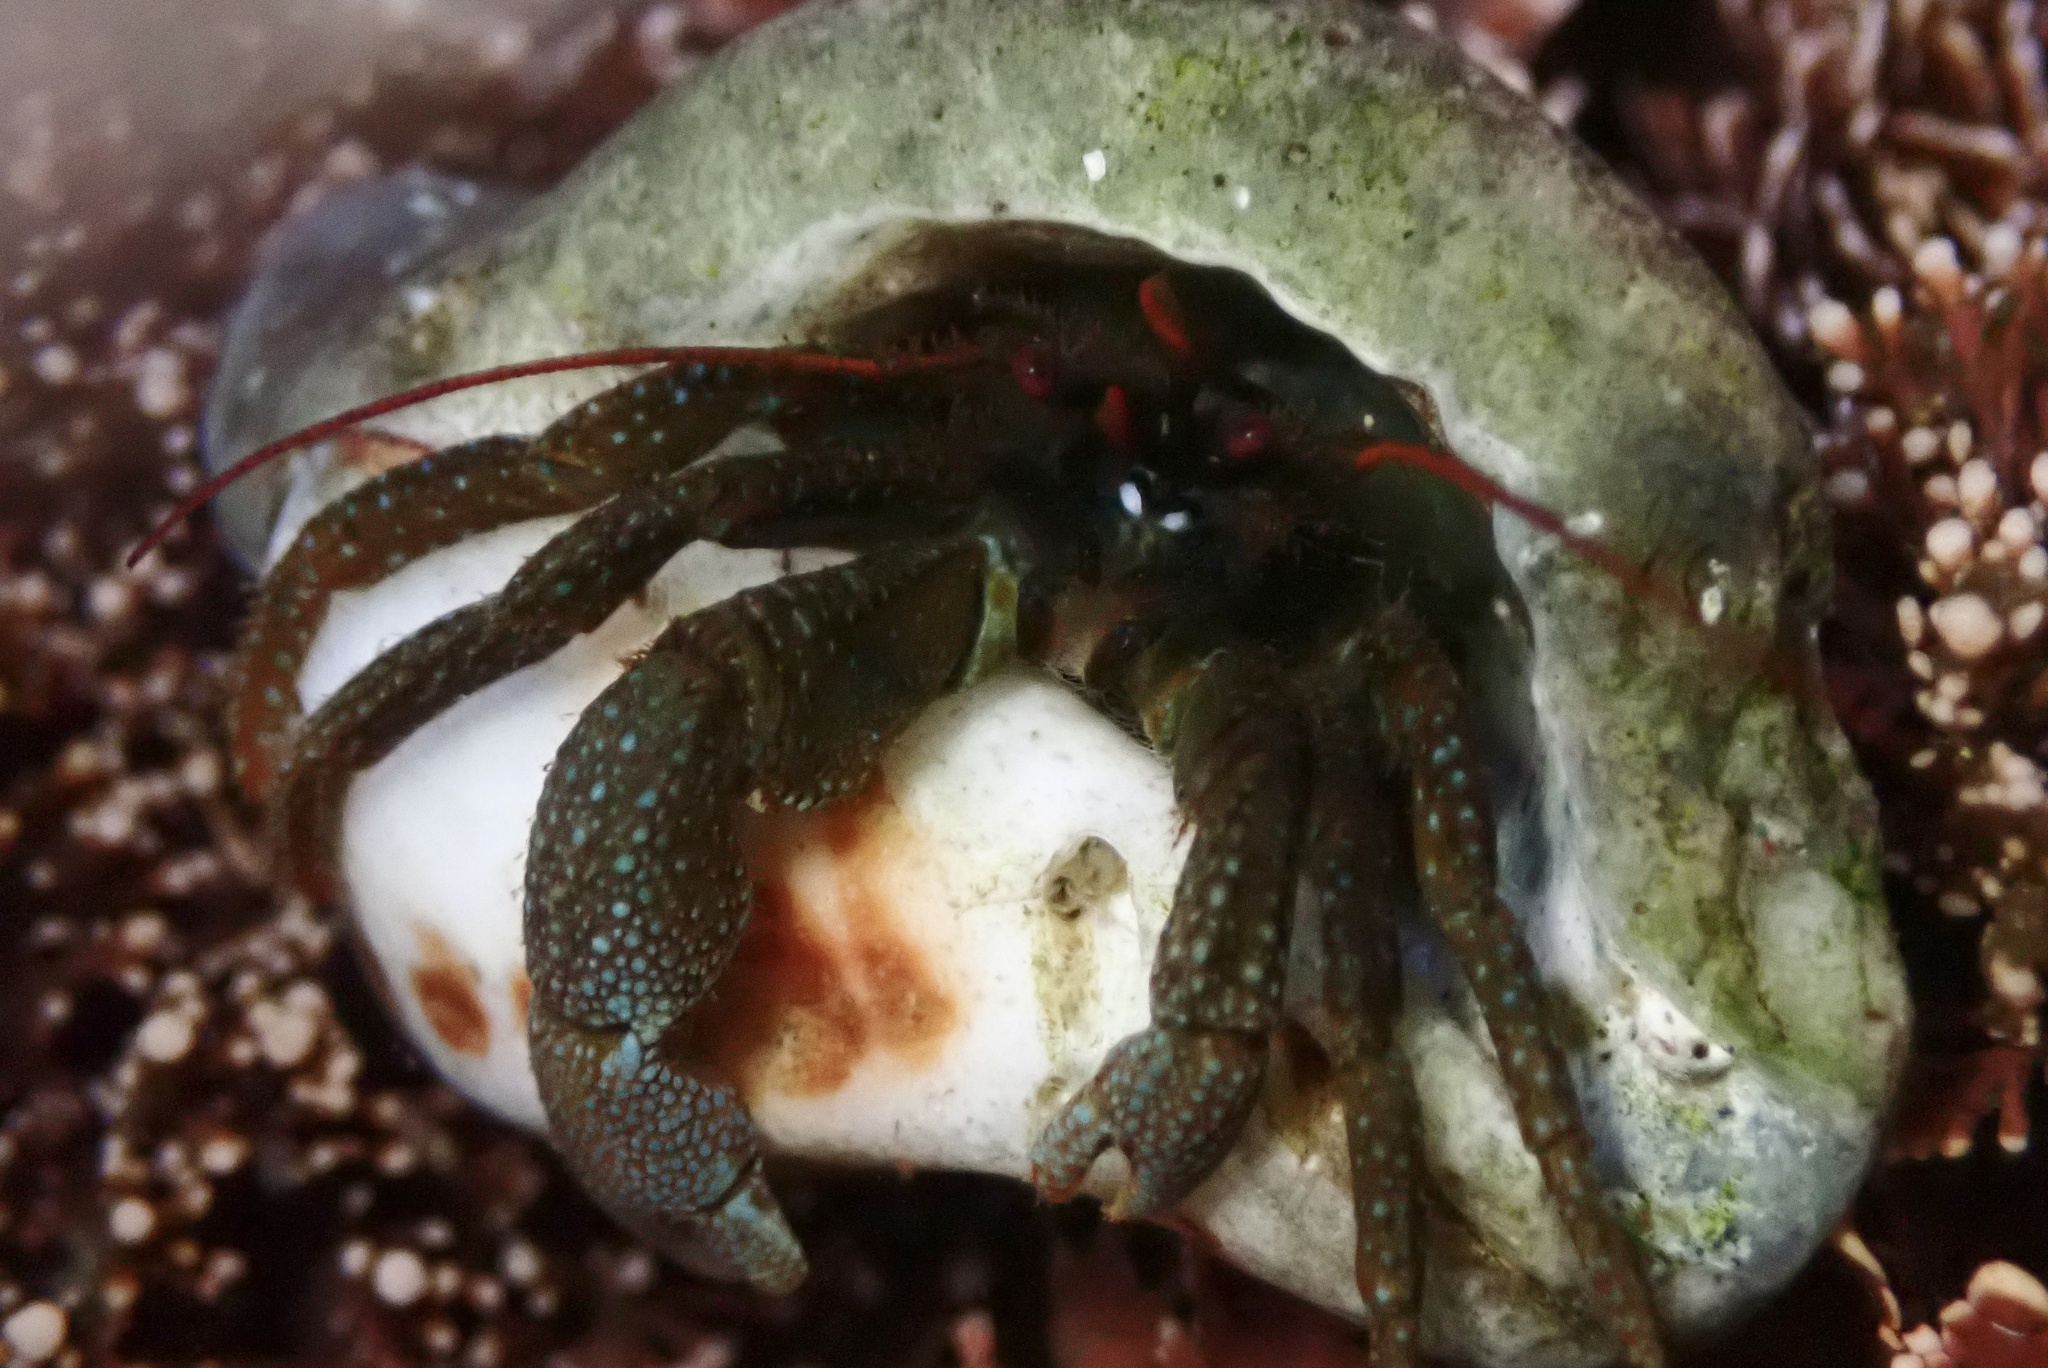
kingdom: Animalia
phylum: Arthropoda
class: Malacostraca
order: Decapoda
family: Paguridae
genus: Pagurus
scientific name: Pagurus granosimanus
